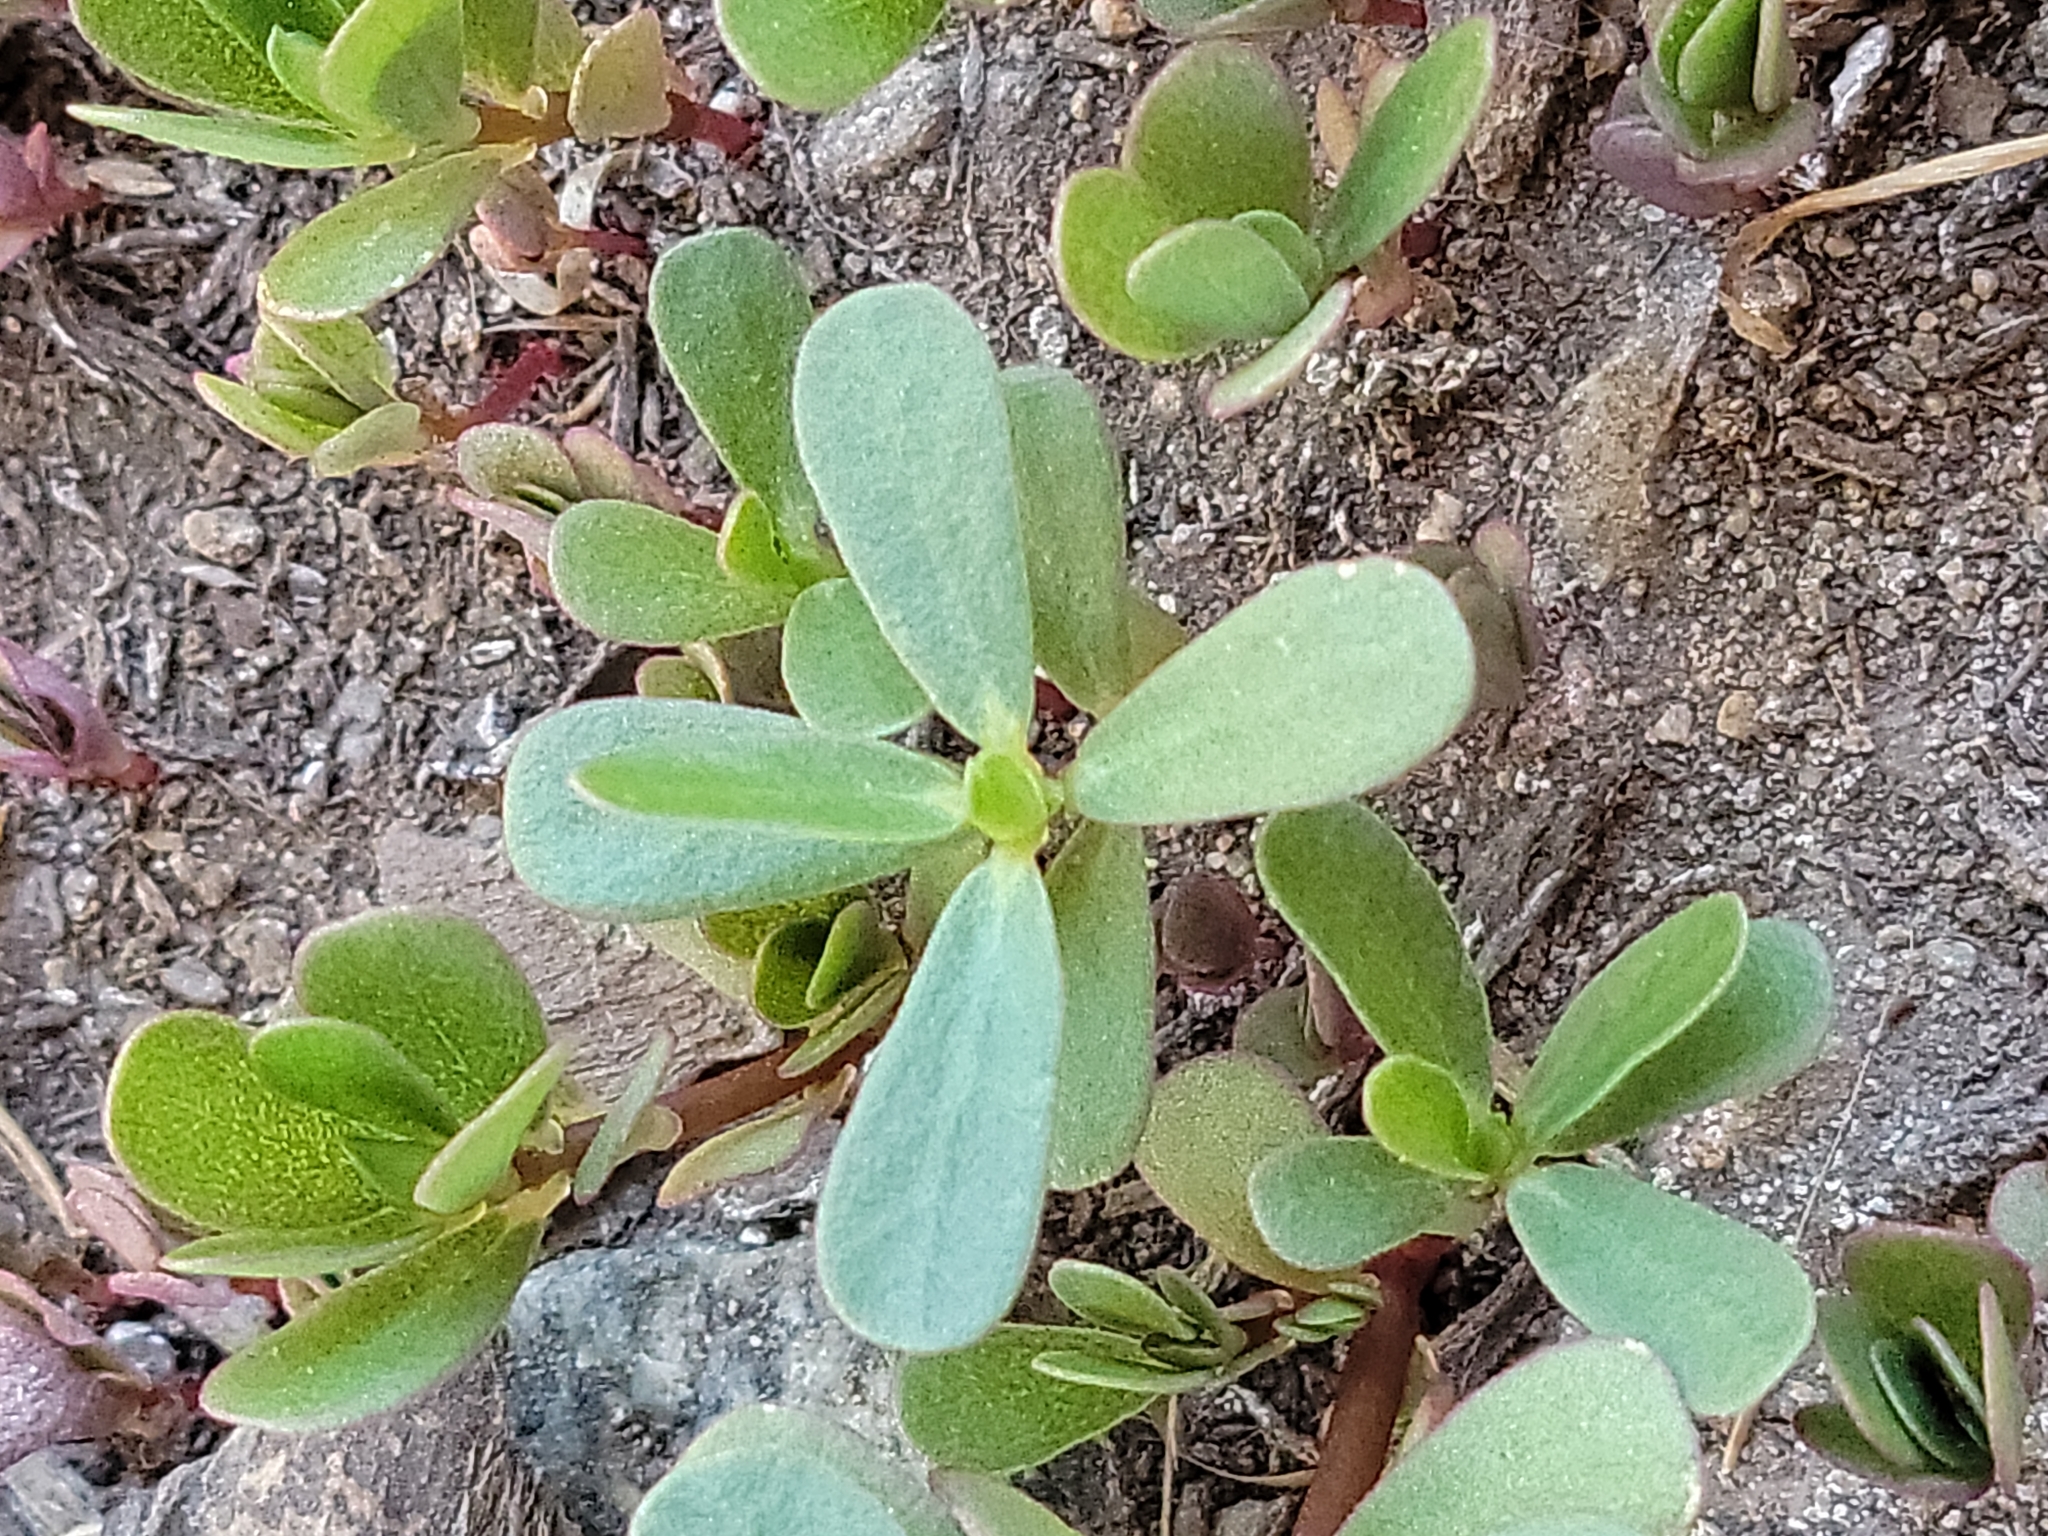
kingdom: Plantae
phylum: Tracheophyta
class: Magnoliopsida
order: Caryophyllales
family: Portulacaceae
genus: Portulaca
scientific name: Portulaca oleracea
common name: Common purslane
